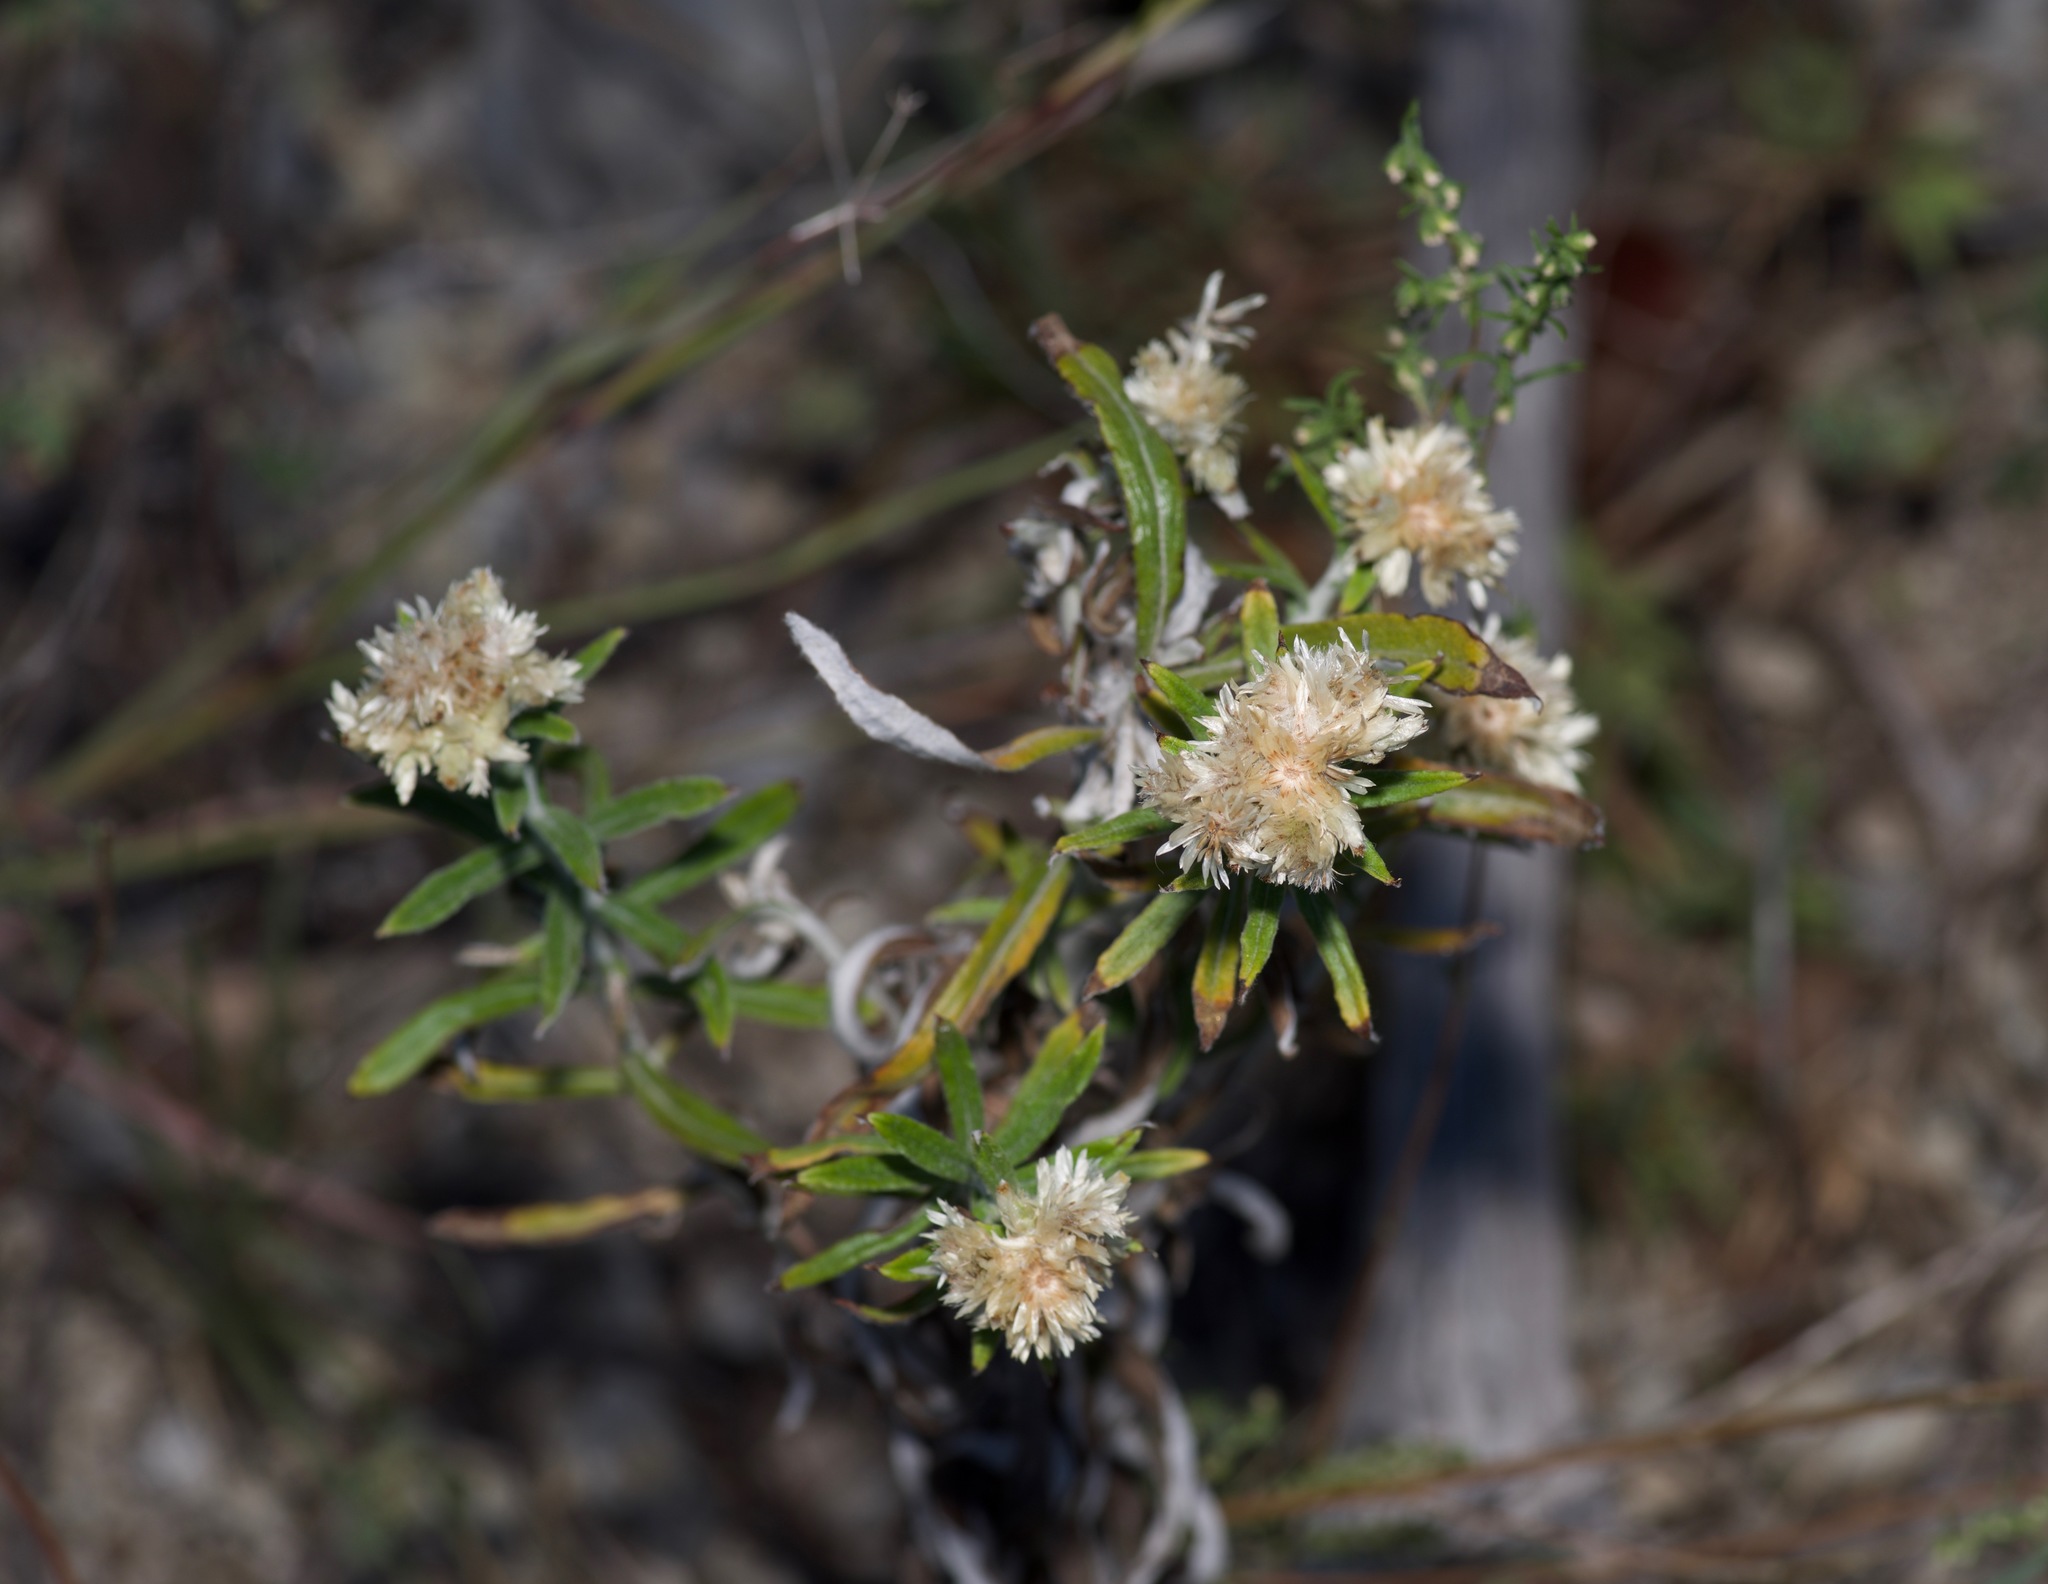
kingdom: Plantae
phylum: Tracheophyta
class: Magnoliopsida
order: Asterales
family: Asteraceae
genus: Pseudognaphalium
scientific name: Pseudognaphalium obtusifolium
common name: Eastern rabbit-tobacco
